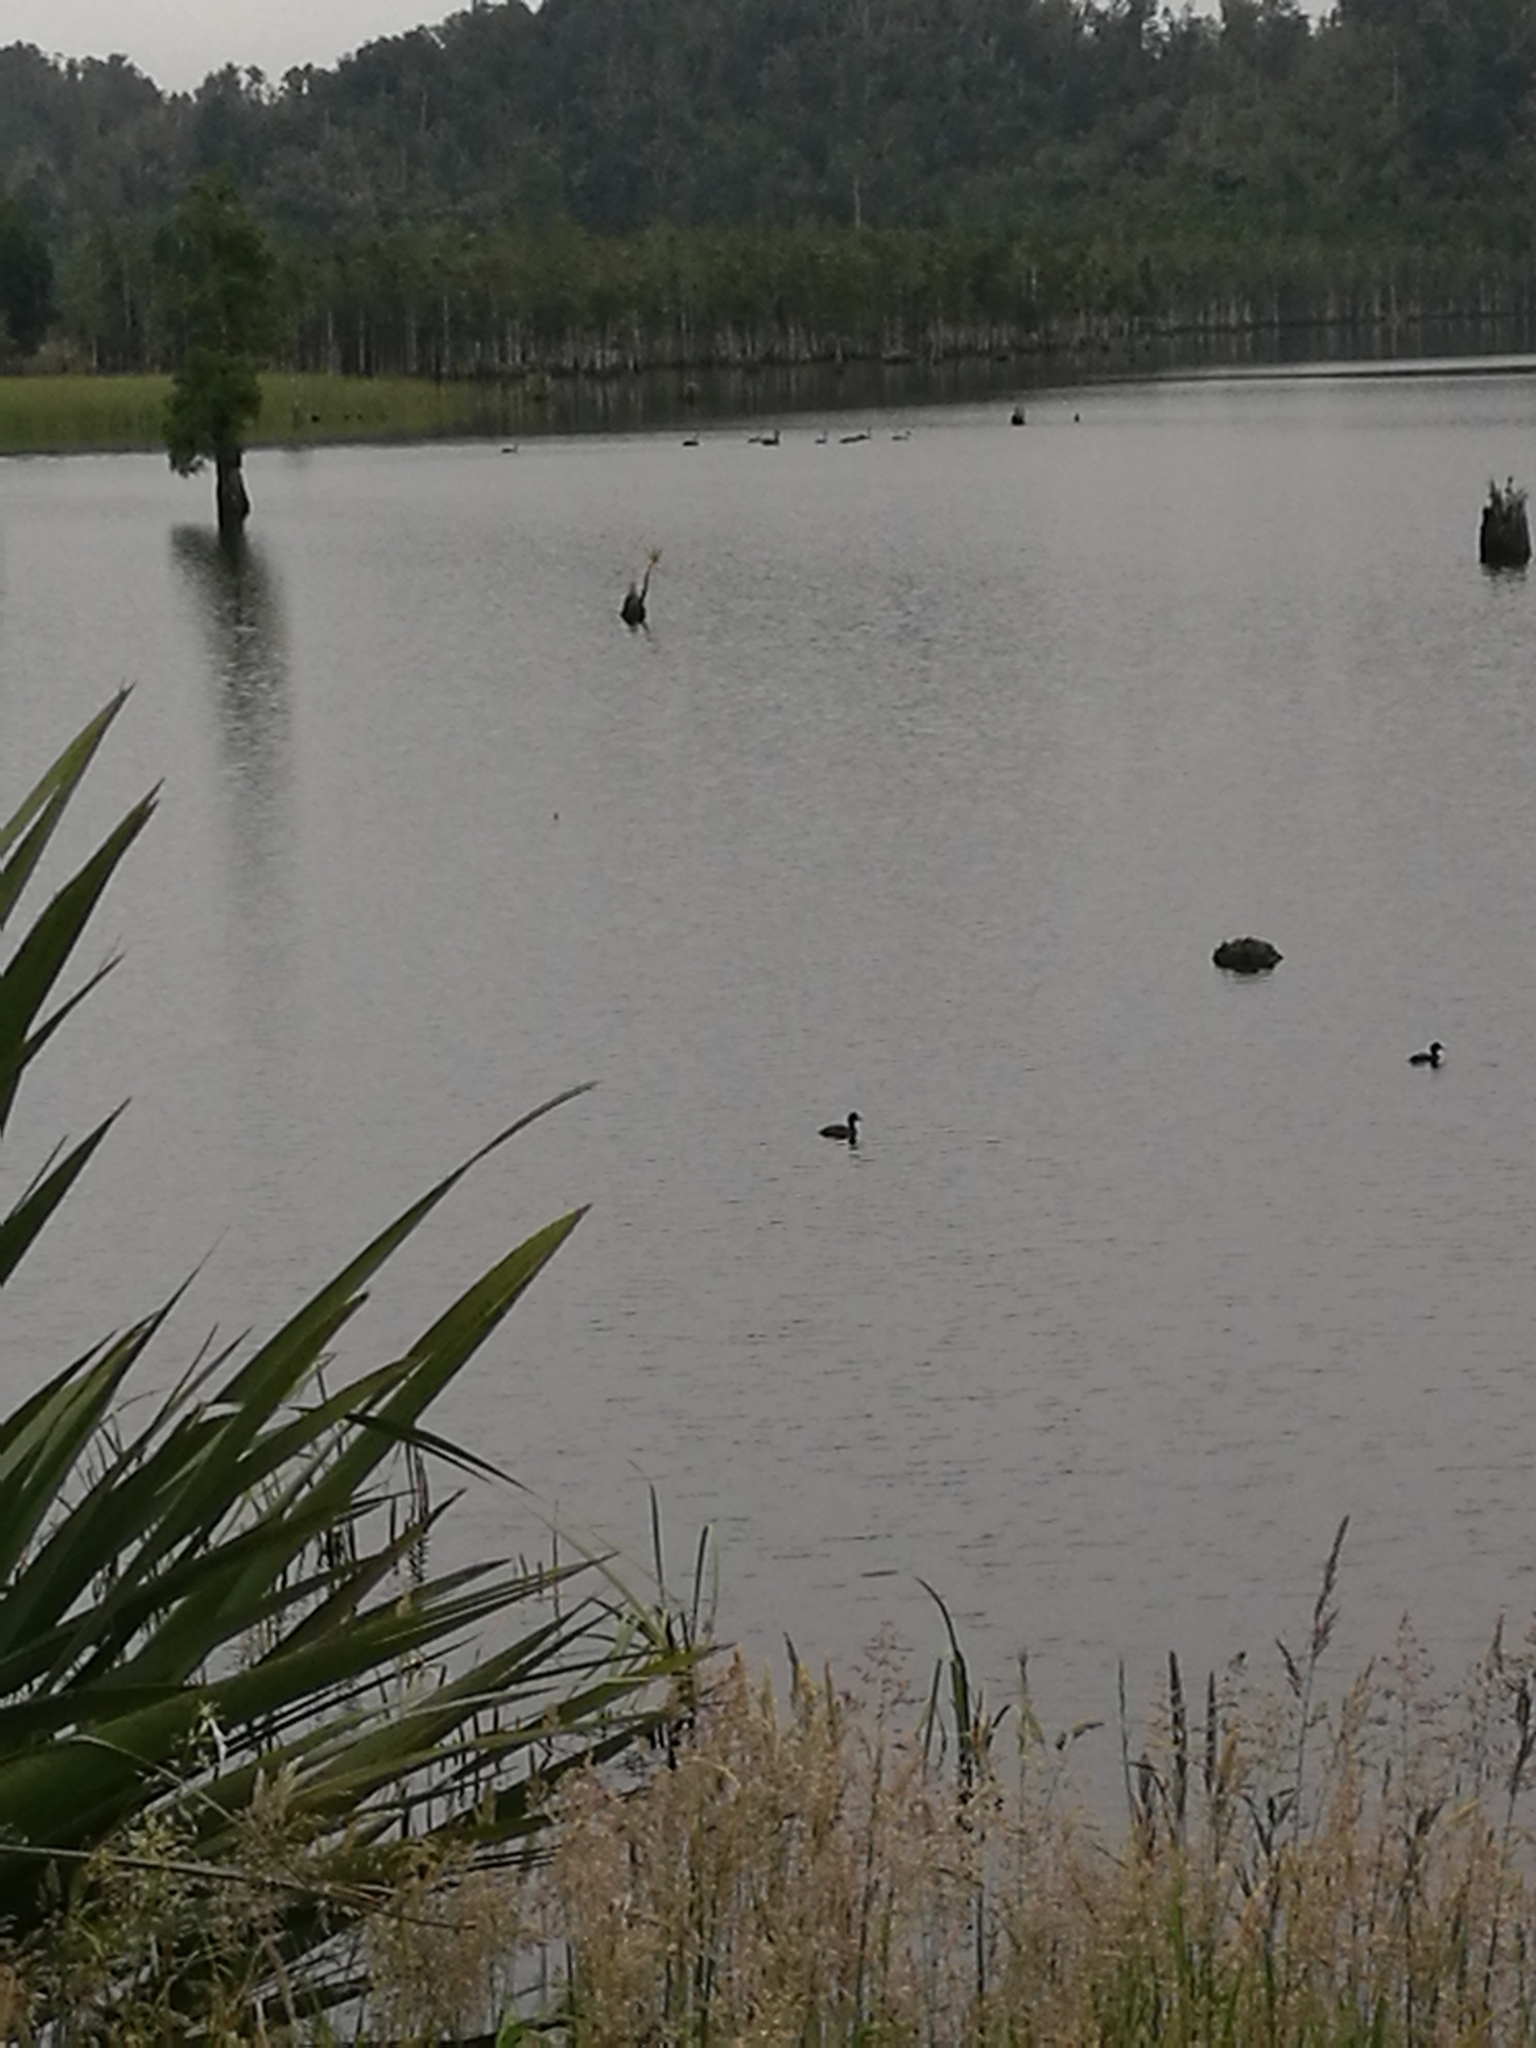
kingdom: Animalia
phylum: Chordata
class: Aves
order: Anseriformes
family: Anatidae
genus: Aythya
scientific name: Aythya novaeseelandiae
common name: New zealand scaup
